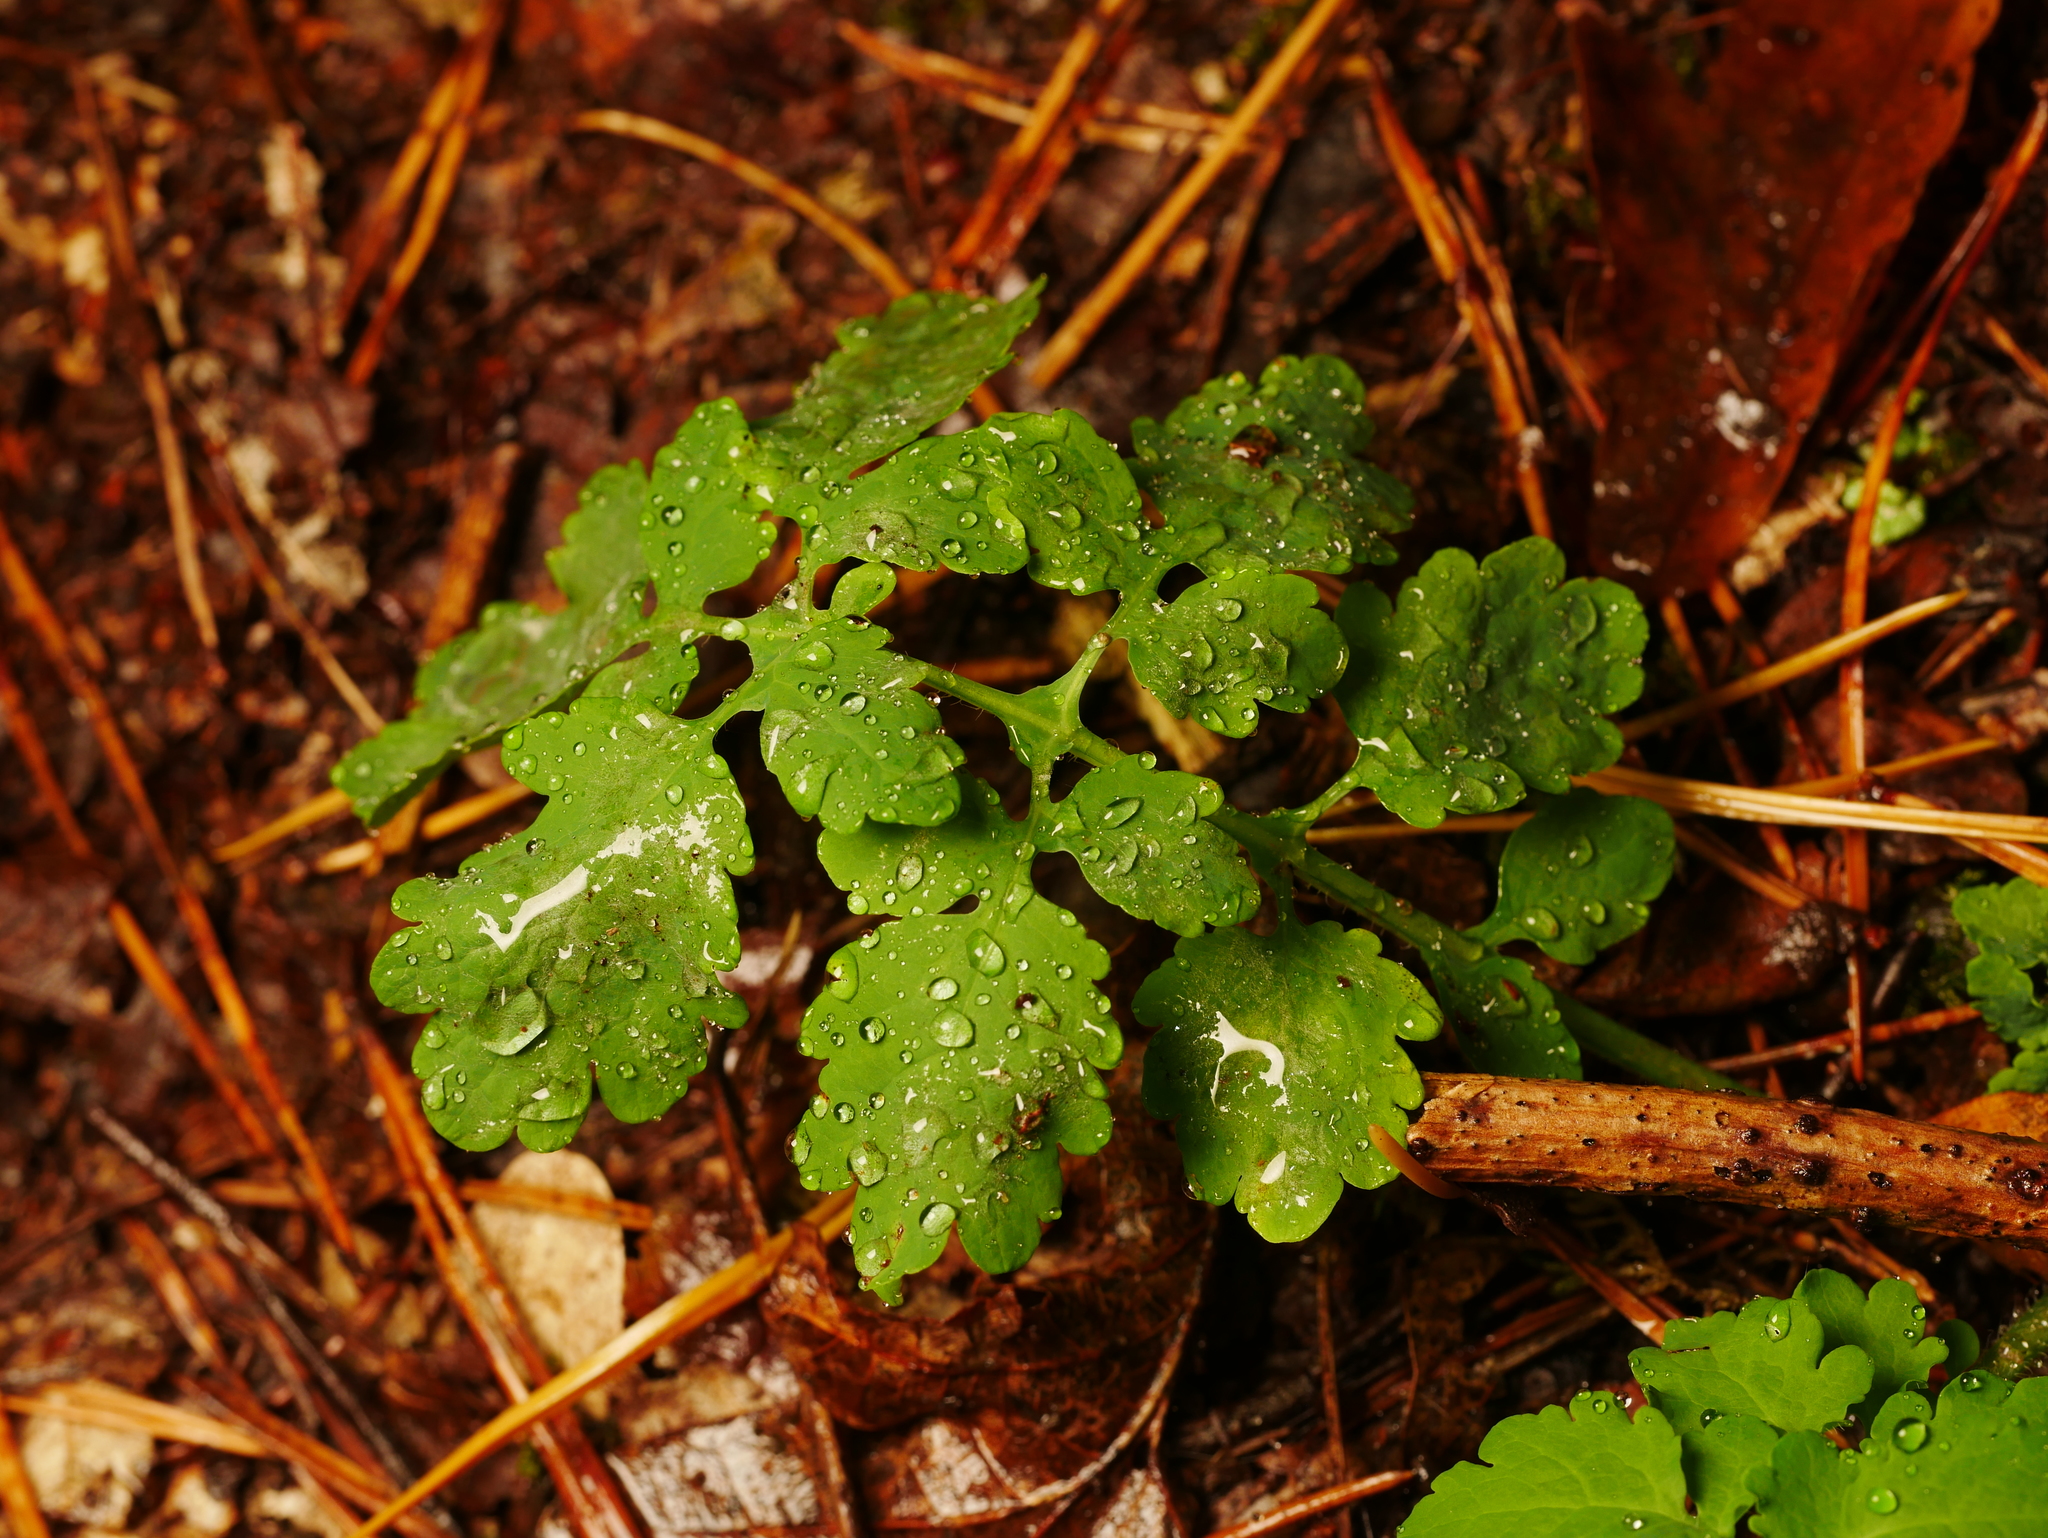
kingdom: Plantae
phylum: Tracheophyta
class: Magnoliopsida
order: Ranunculales
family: Papaveraceae
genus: Chelidonium
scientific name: Chelidonium majus
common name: Greater celandine
